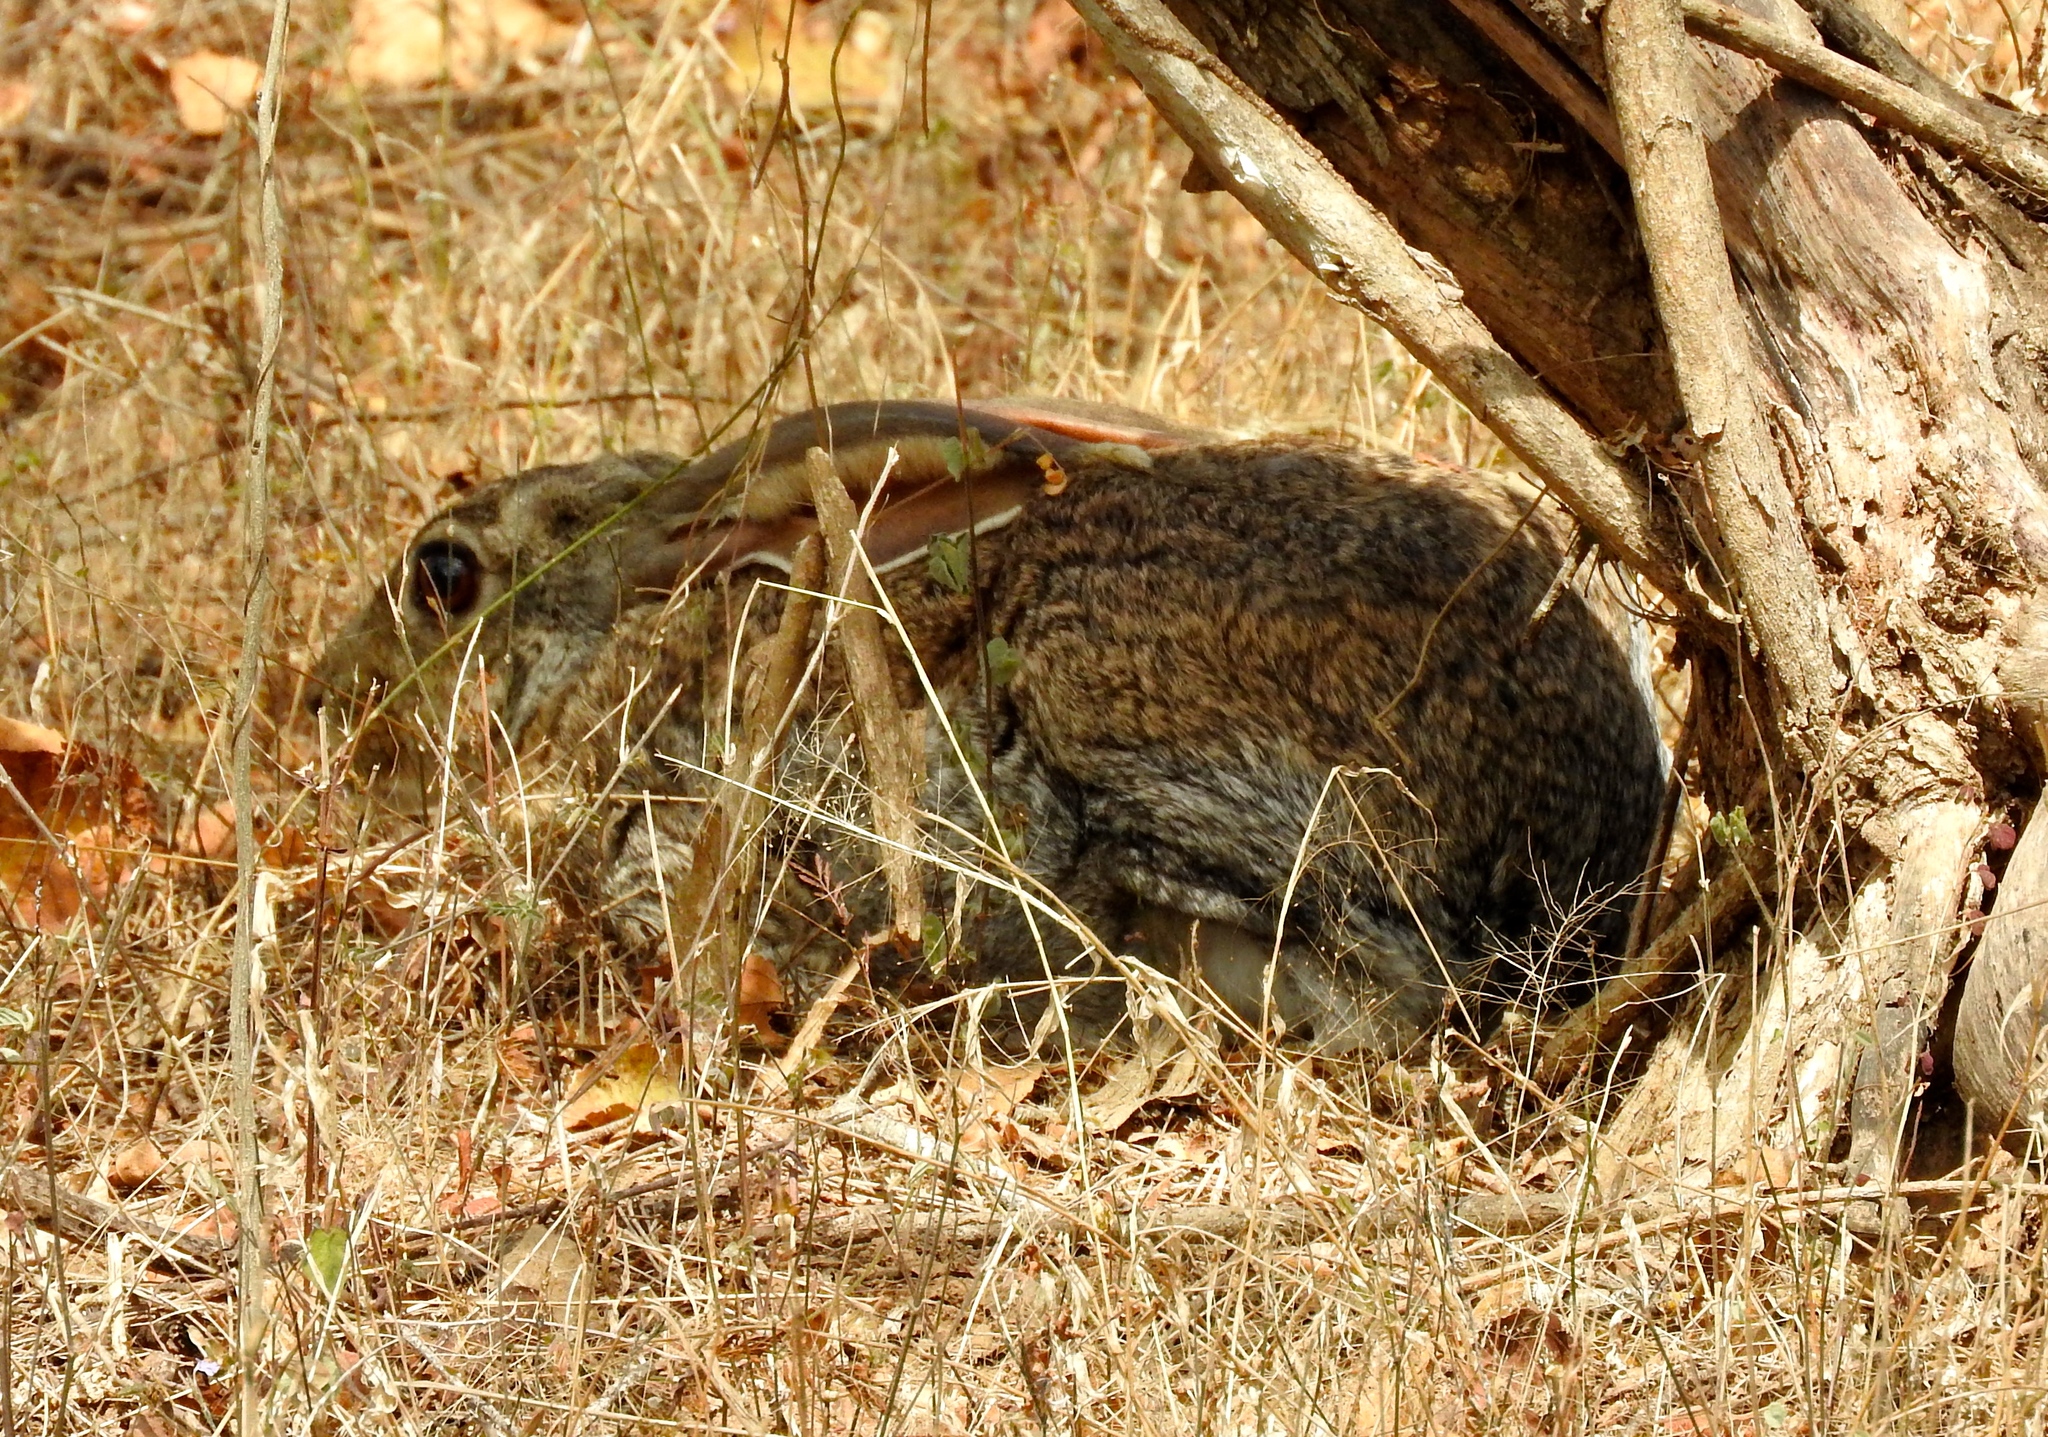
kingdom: Animalia
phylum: Chordata
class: Mammalia
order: Lagomorpha
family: Leporidae
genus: Lepus
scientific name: Lepus alleni
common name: Antelope jackrabbit
